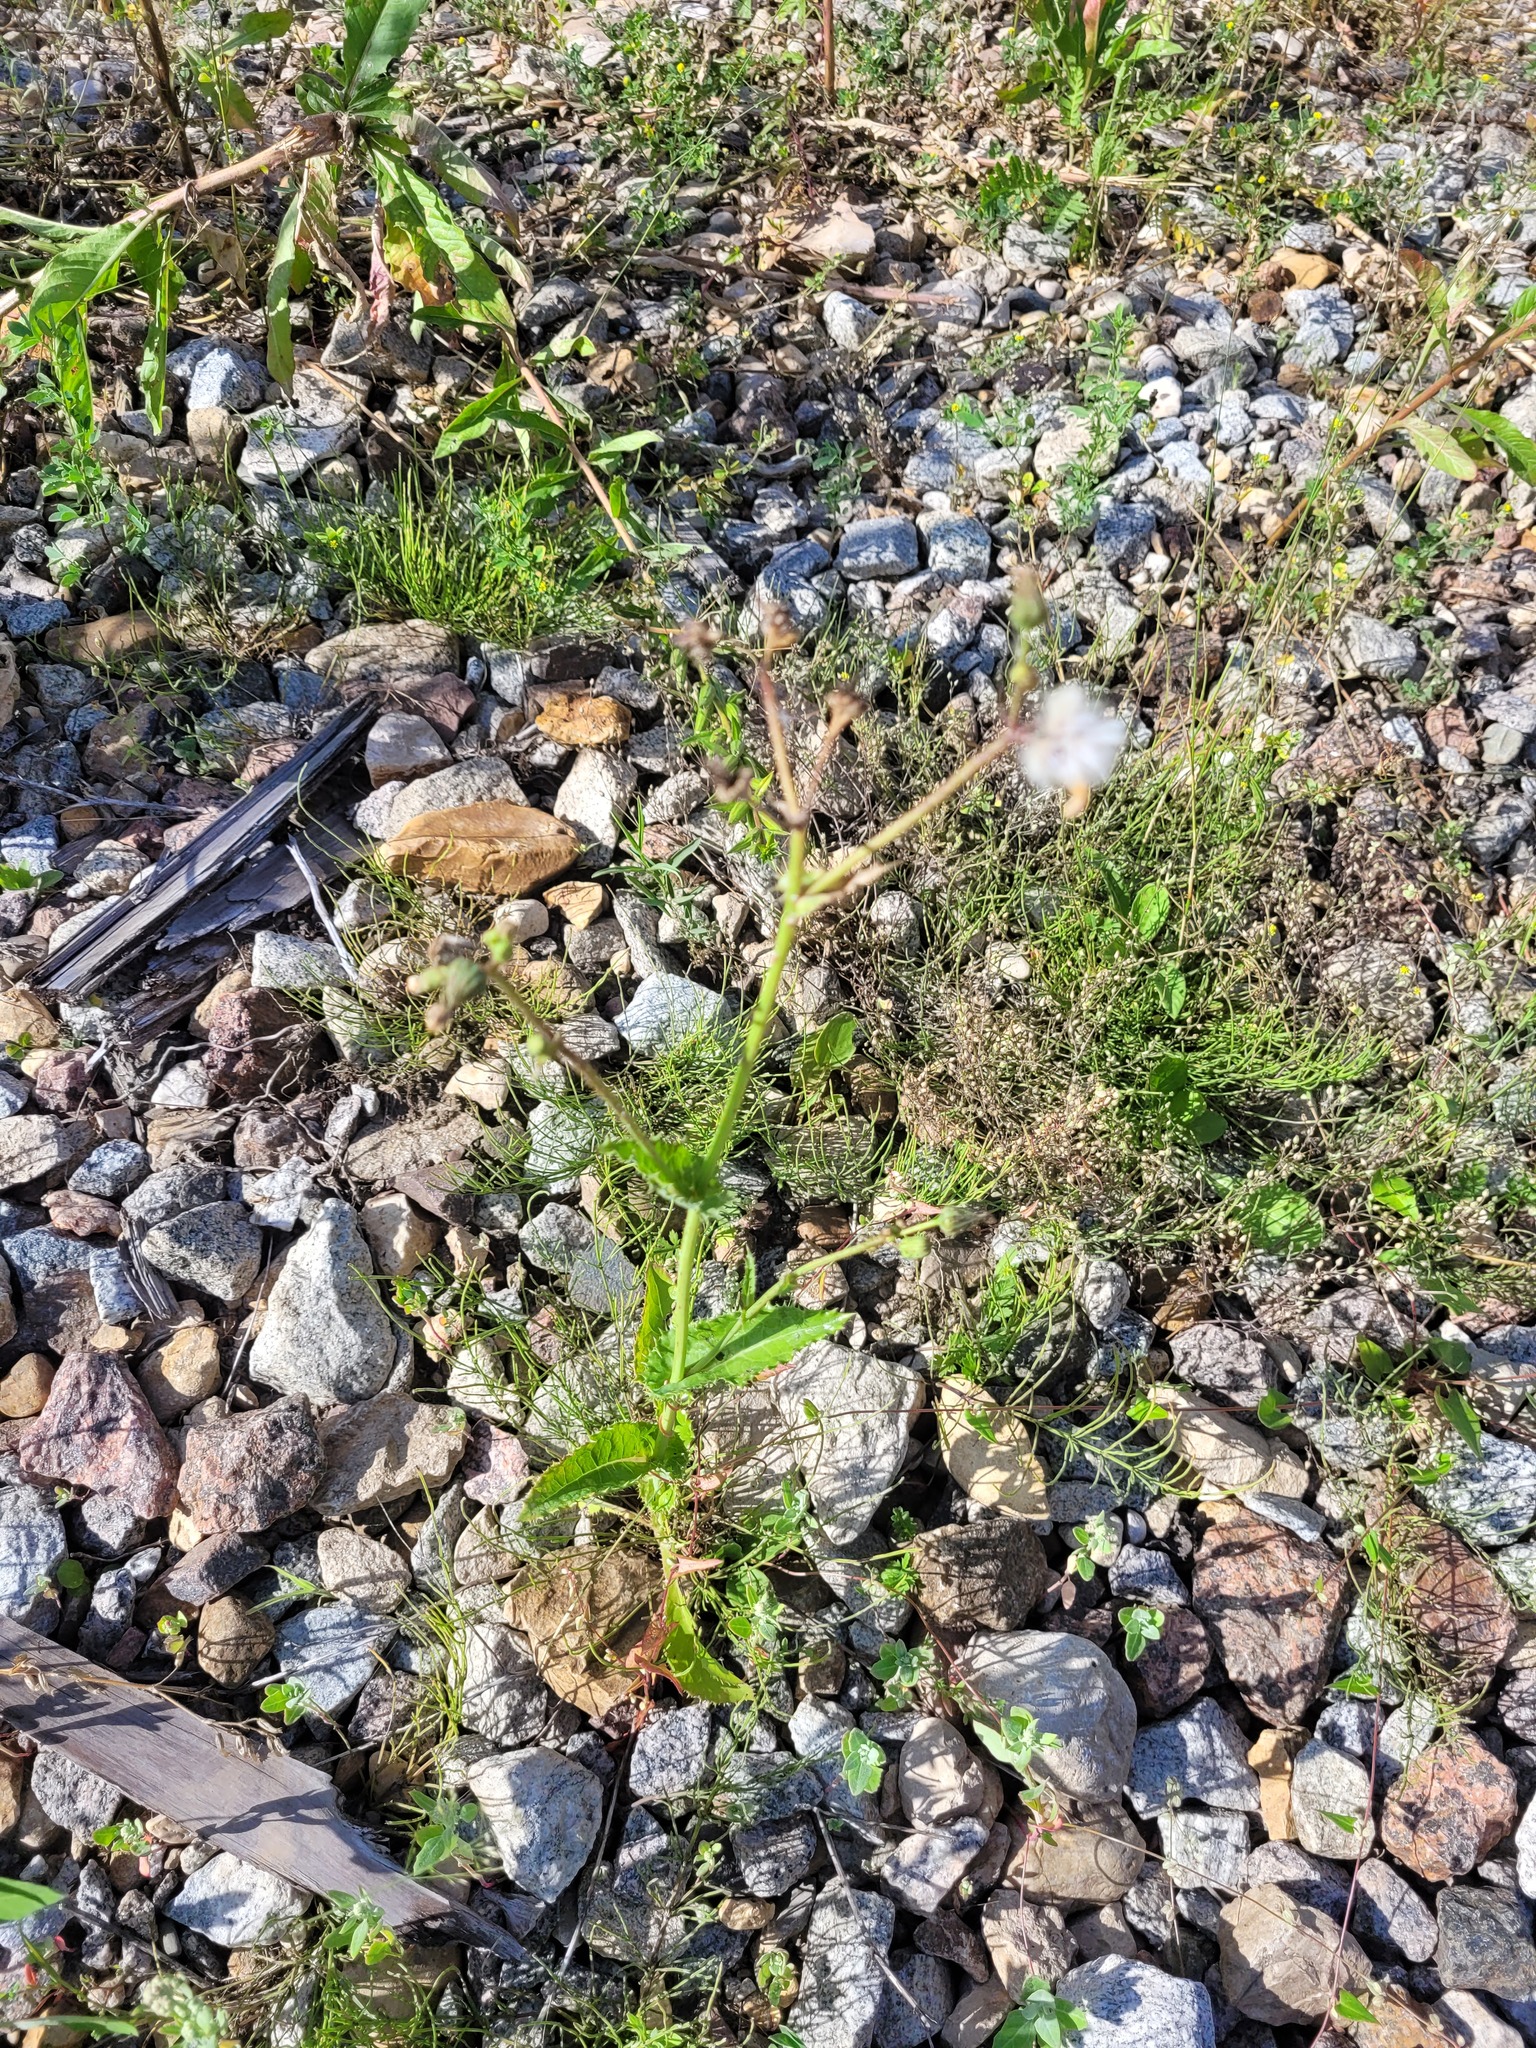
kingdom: Plantae
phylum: Tracheophyta
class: Magnoliopsida
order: Asterales
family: Asteraceae
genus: Sonchus
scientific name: Sonchus asper
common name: Prickly sow-thistle
